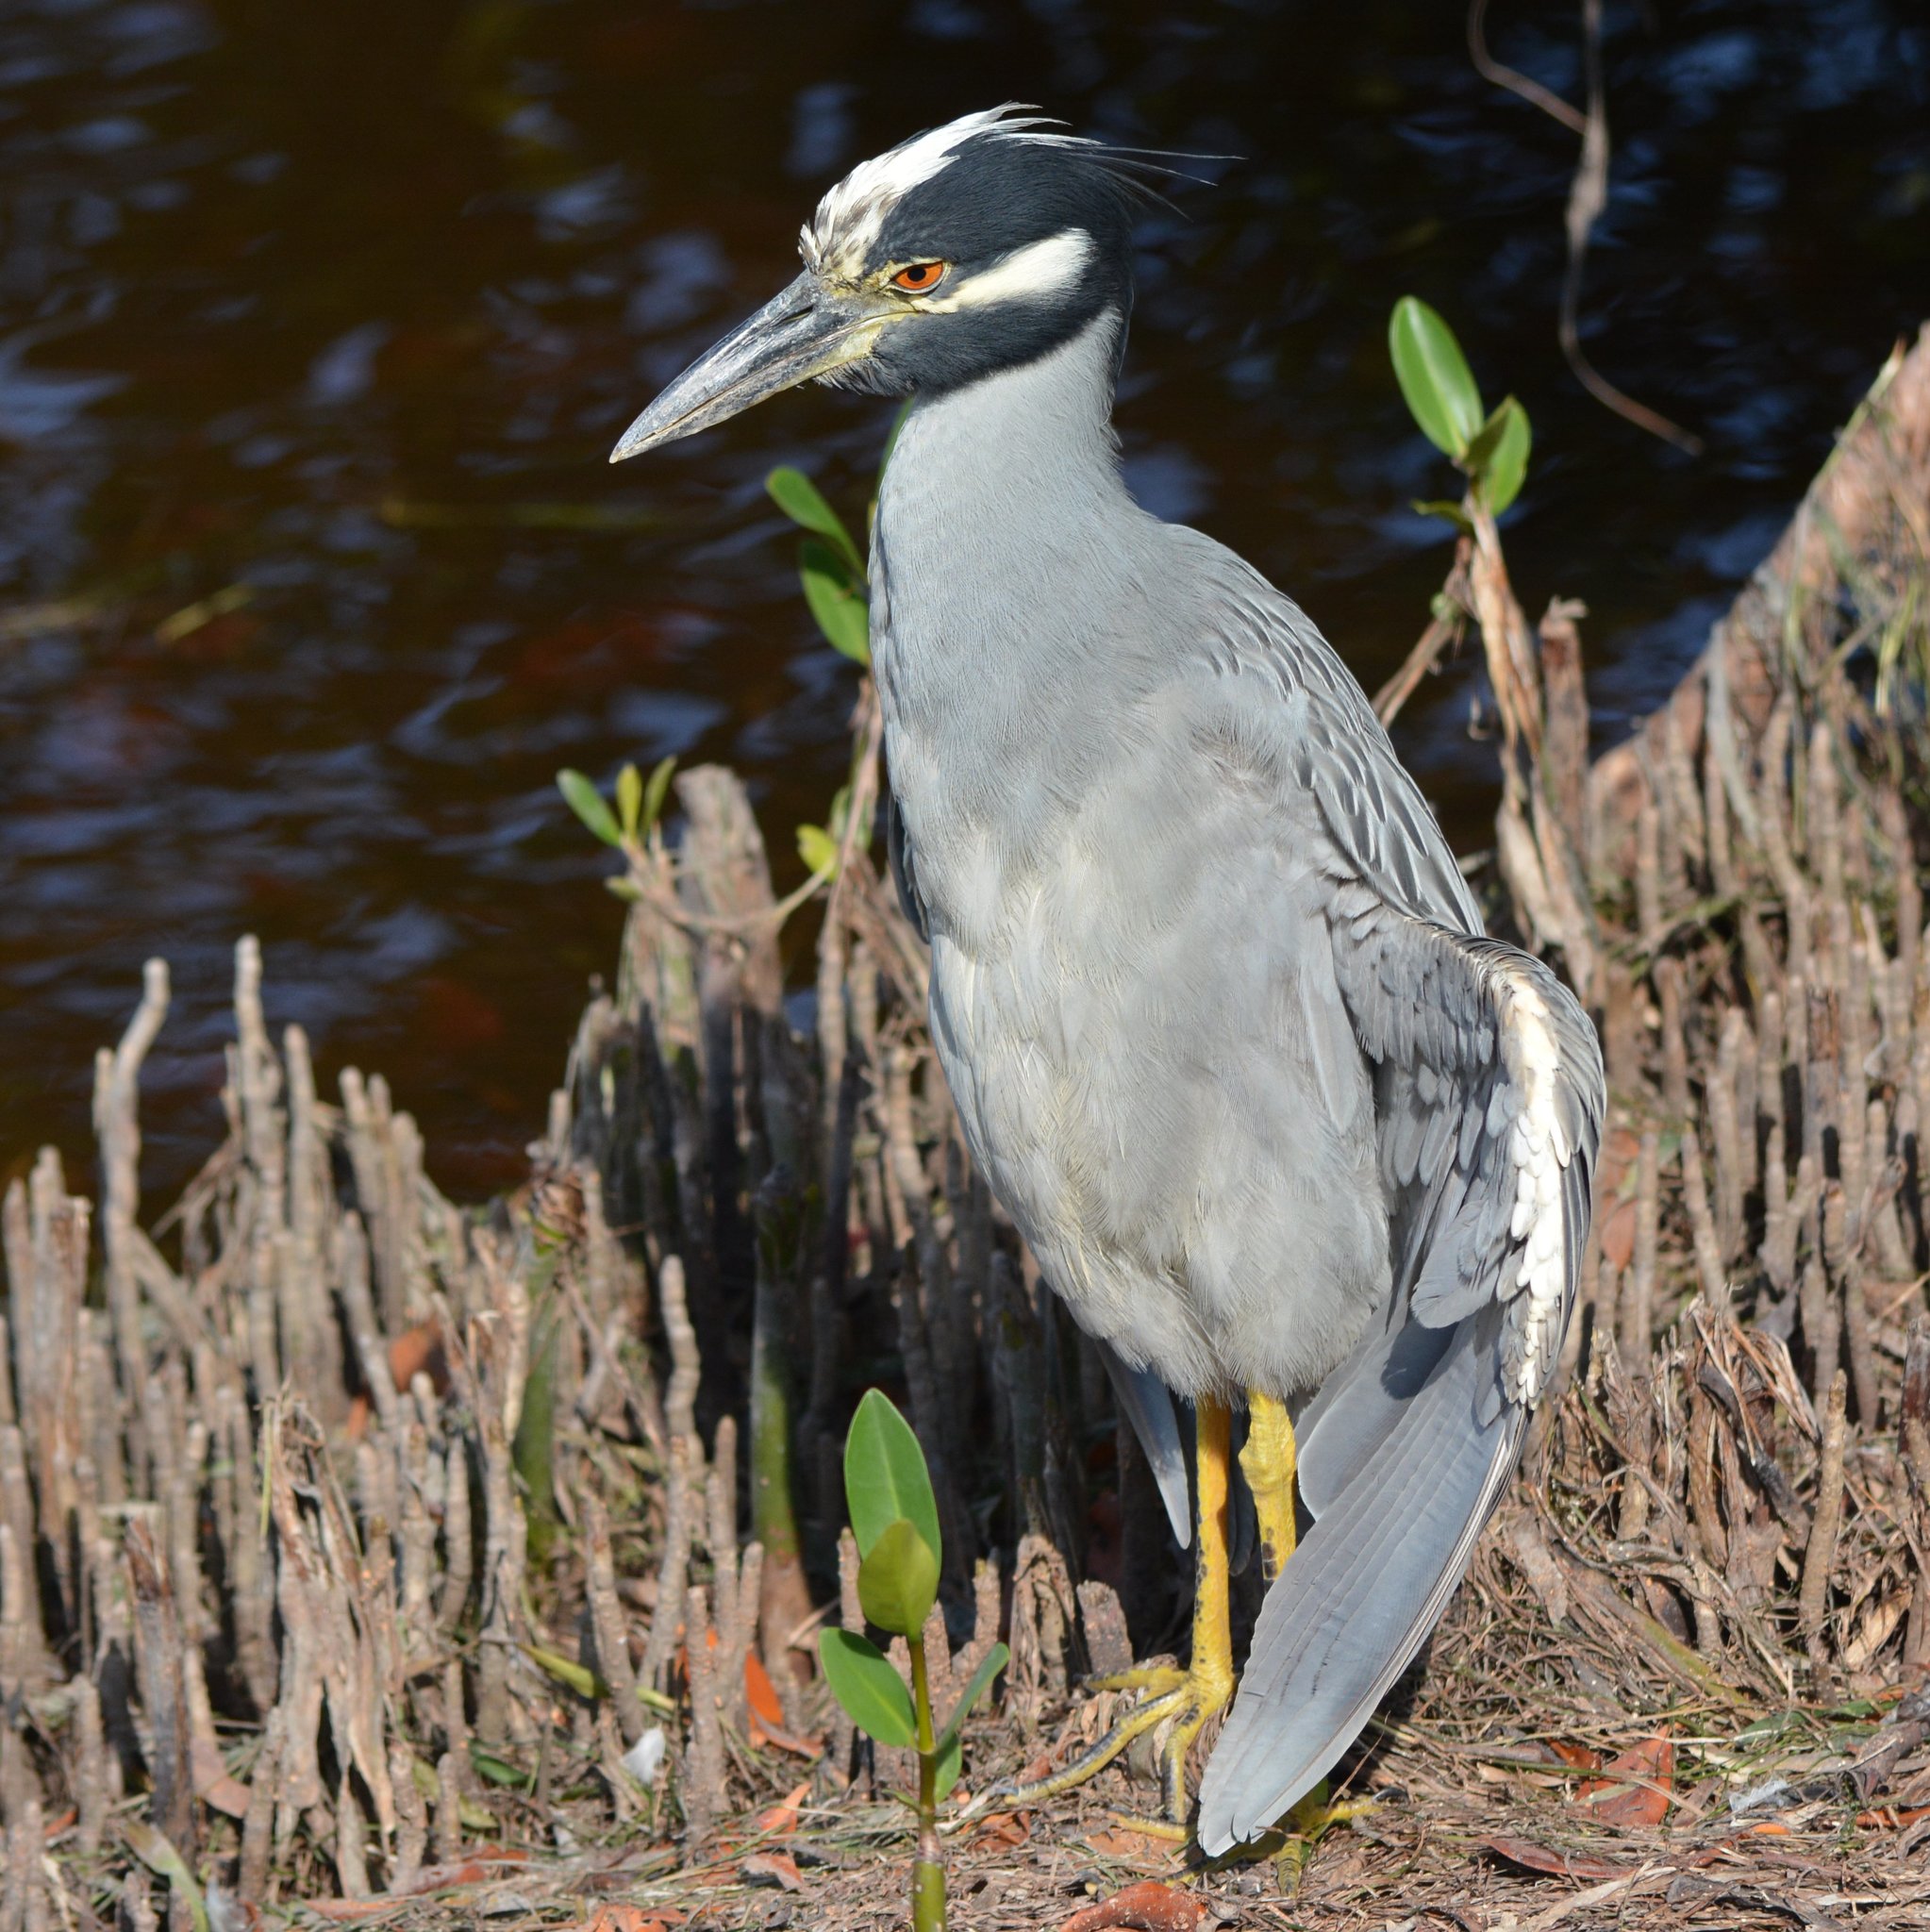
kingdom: Animalia
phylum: Chordata
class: Aves
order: Pelecaniformes
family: Ardeidae
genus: Nyctanassa
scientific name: Nyctanassa violacea
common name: Yellow-crowned night heron
